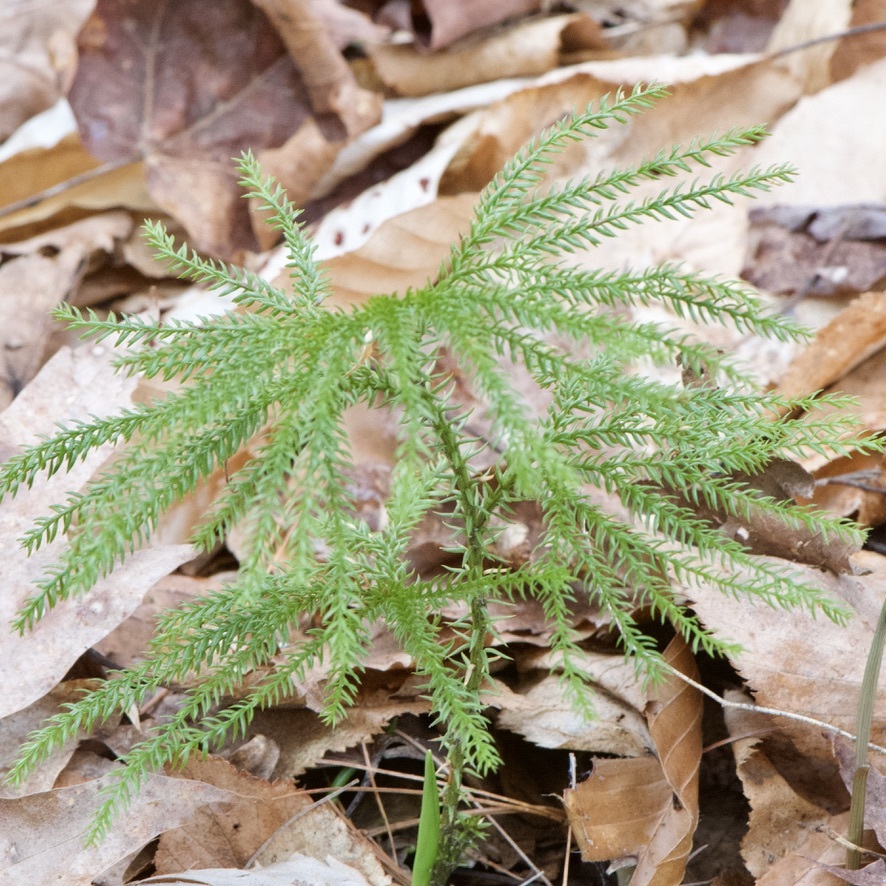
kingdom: Plantae
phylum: Tracheophyta
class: Lycopodiopsida
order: Lycopodiales
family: Lycopodiaceae
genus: Dendrolycopodium
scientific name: Dendrolycopodium dendroideum
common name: Northern tree-clubmoss
